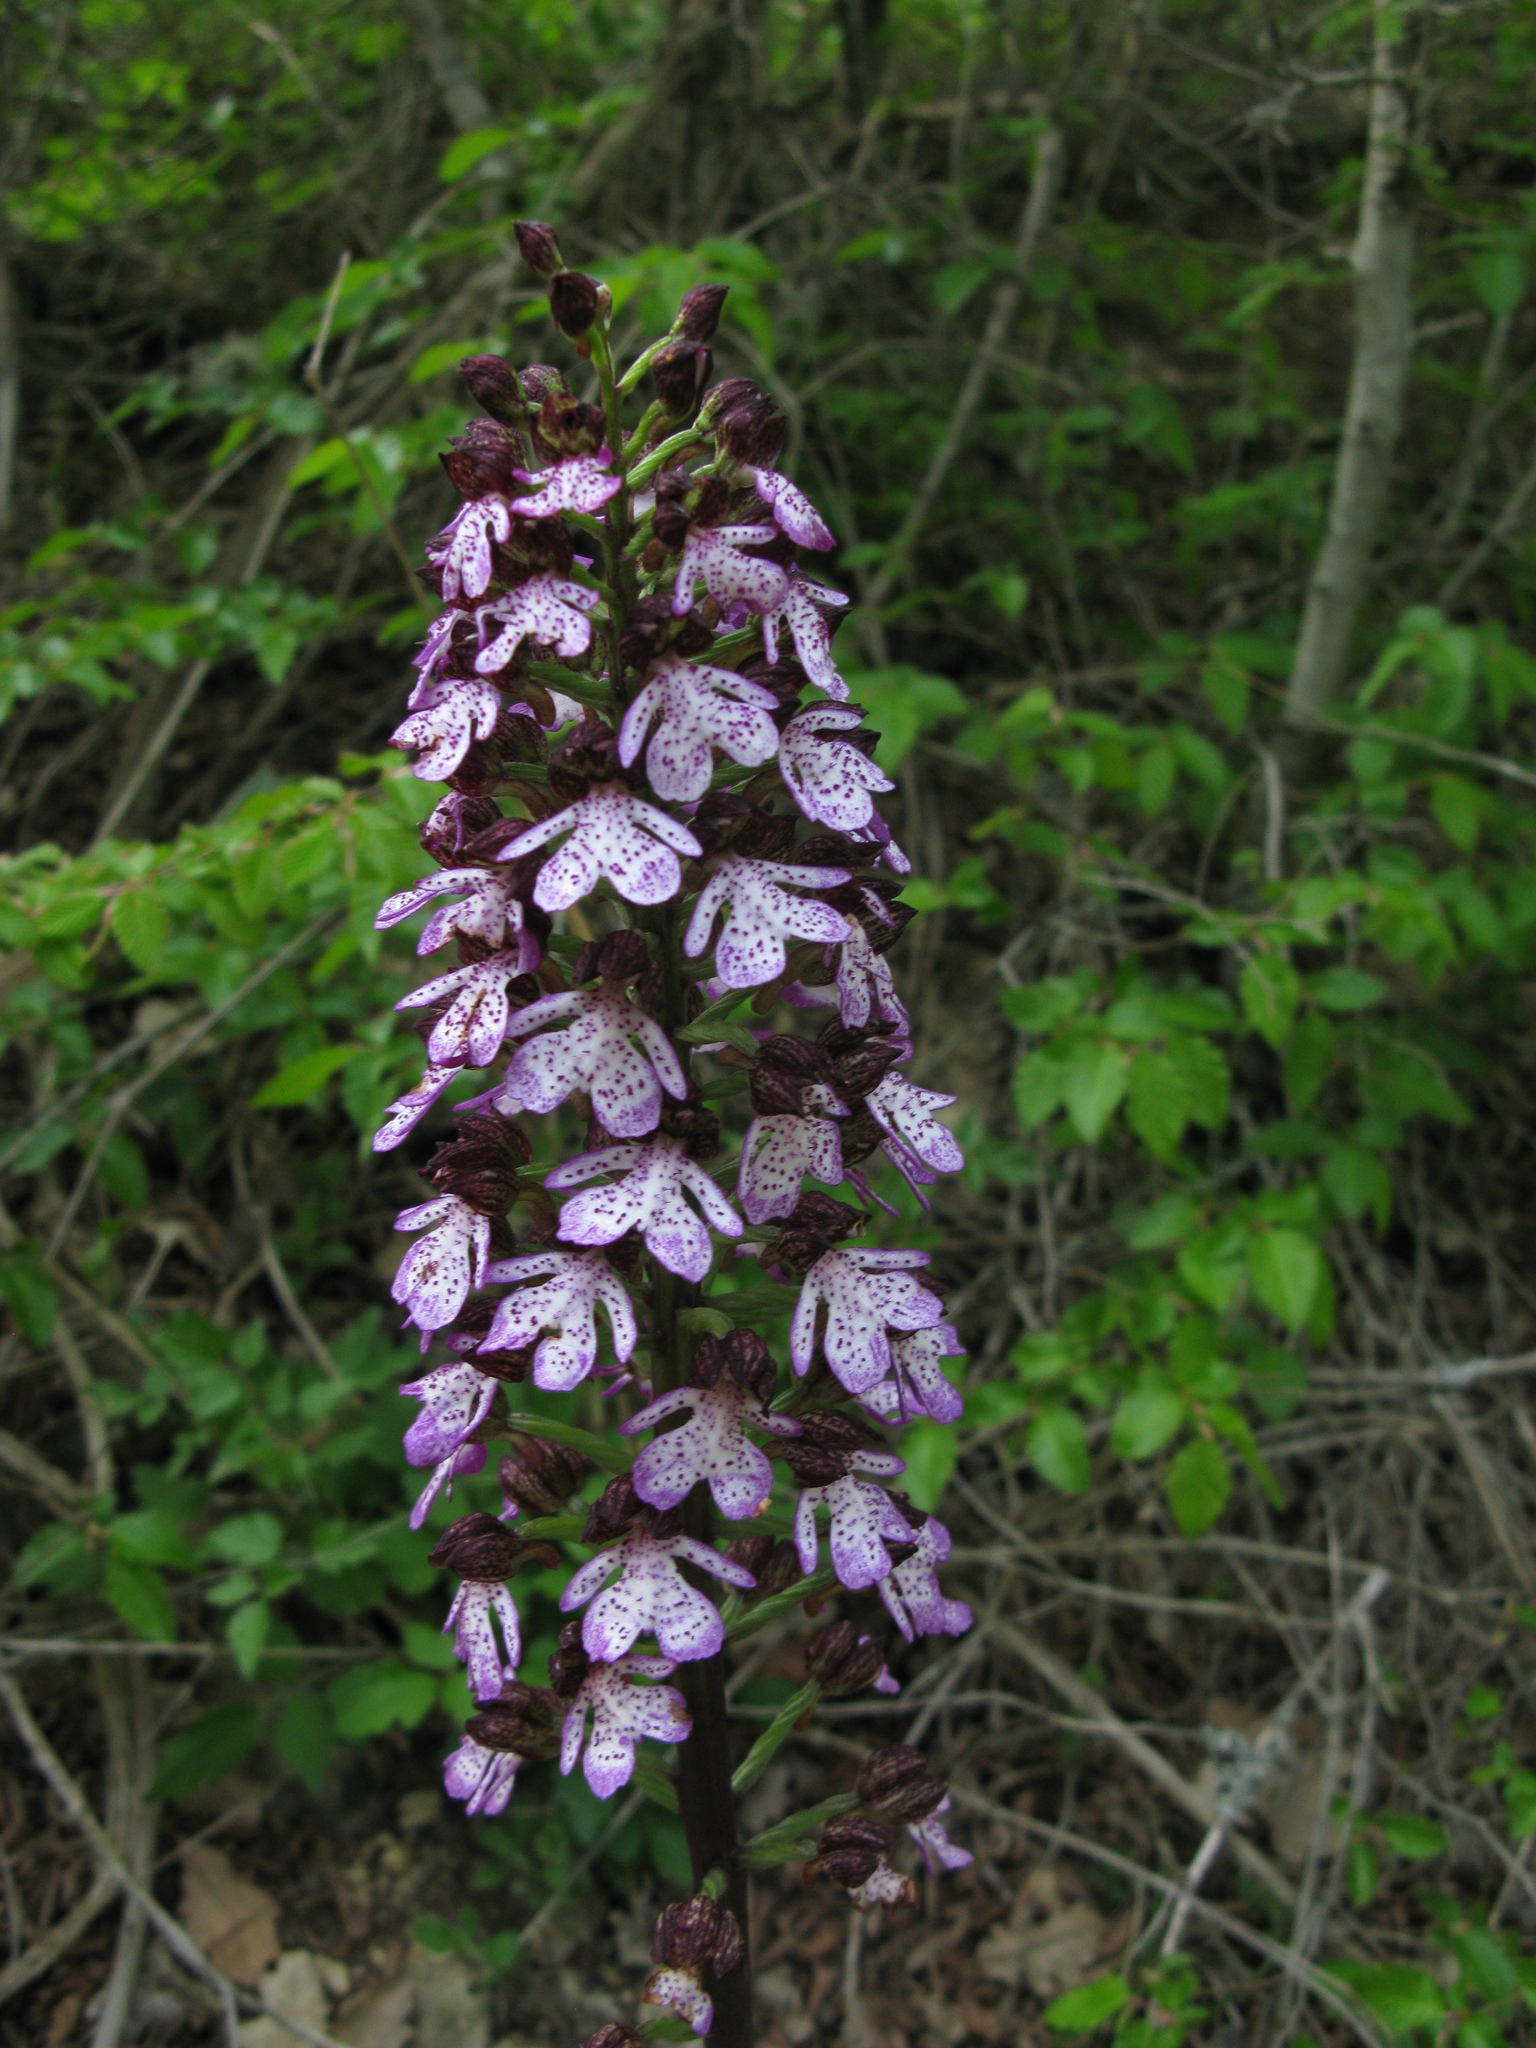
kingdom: Plantae
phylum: Tracheophyta
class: Liliopsida
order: Asparagales
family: Orchidaceae
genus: Orchis
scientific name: Orchis purpurea
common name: Lady orchid
